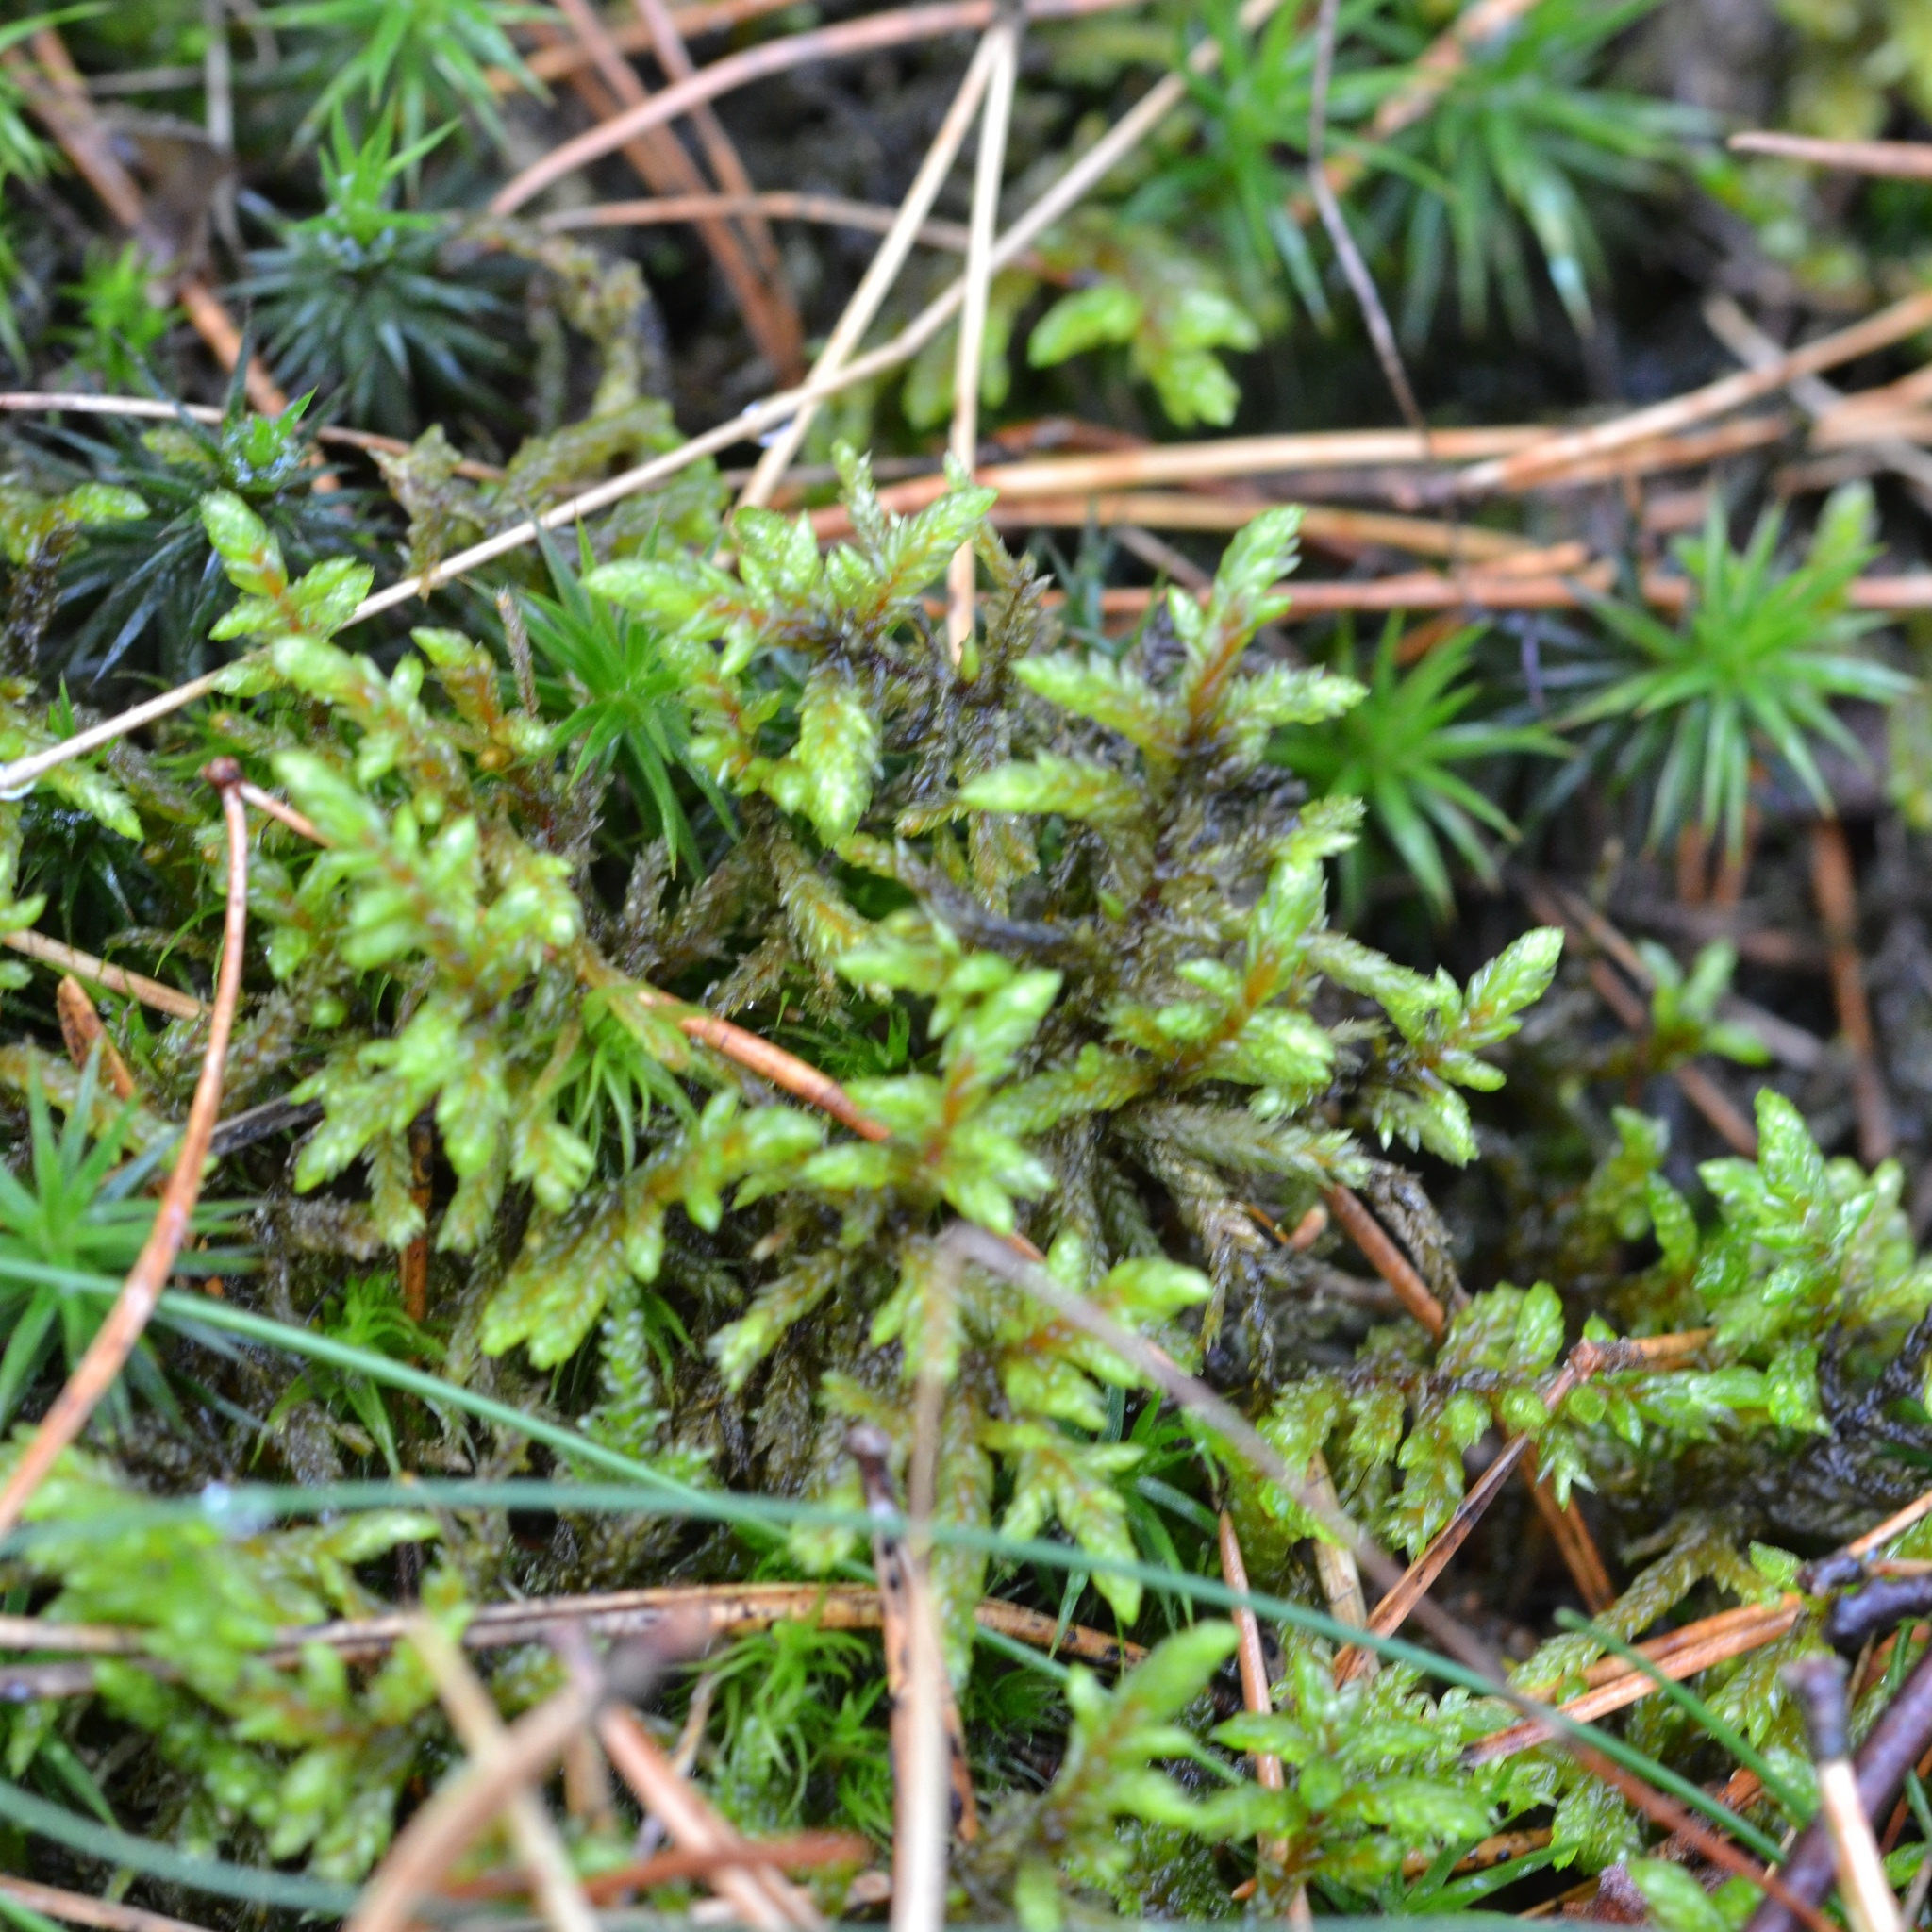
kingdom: Plantae
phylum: Bryophyta
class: Bryopsida
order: Hypnales
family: Hylocomiaceae
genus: Pleurozium
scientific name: Pleurozium schreberi
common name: Red-stemmed feather moss
